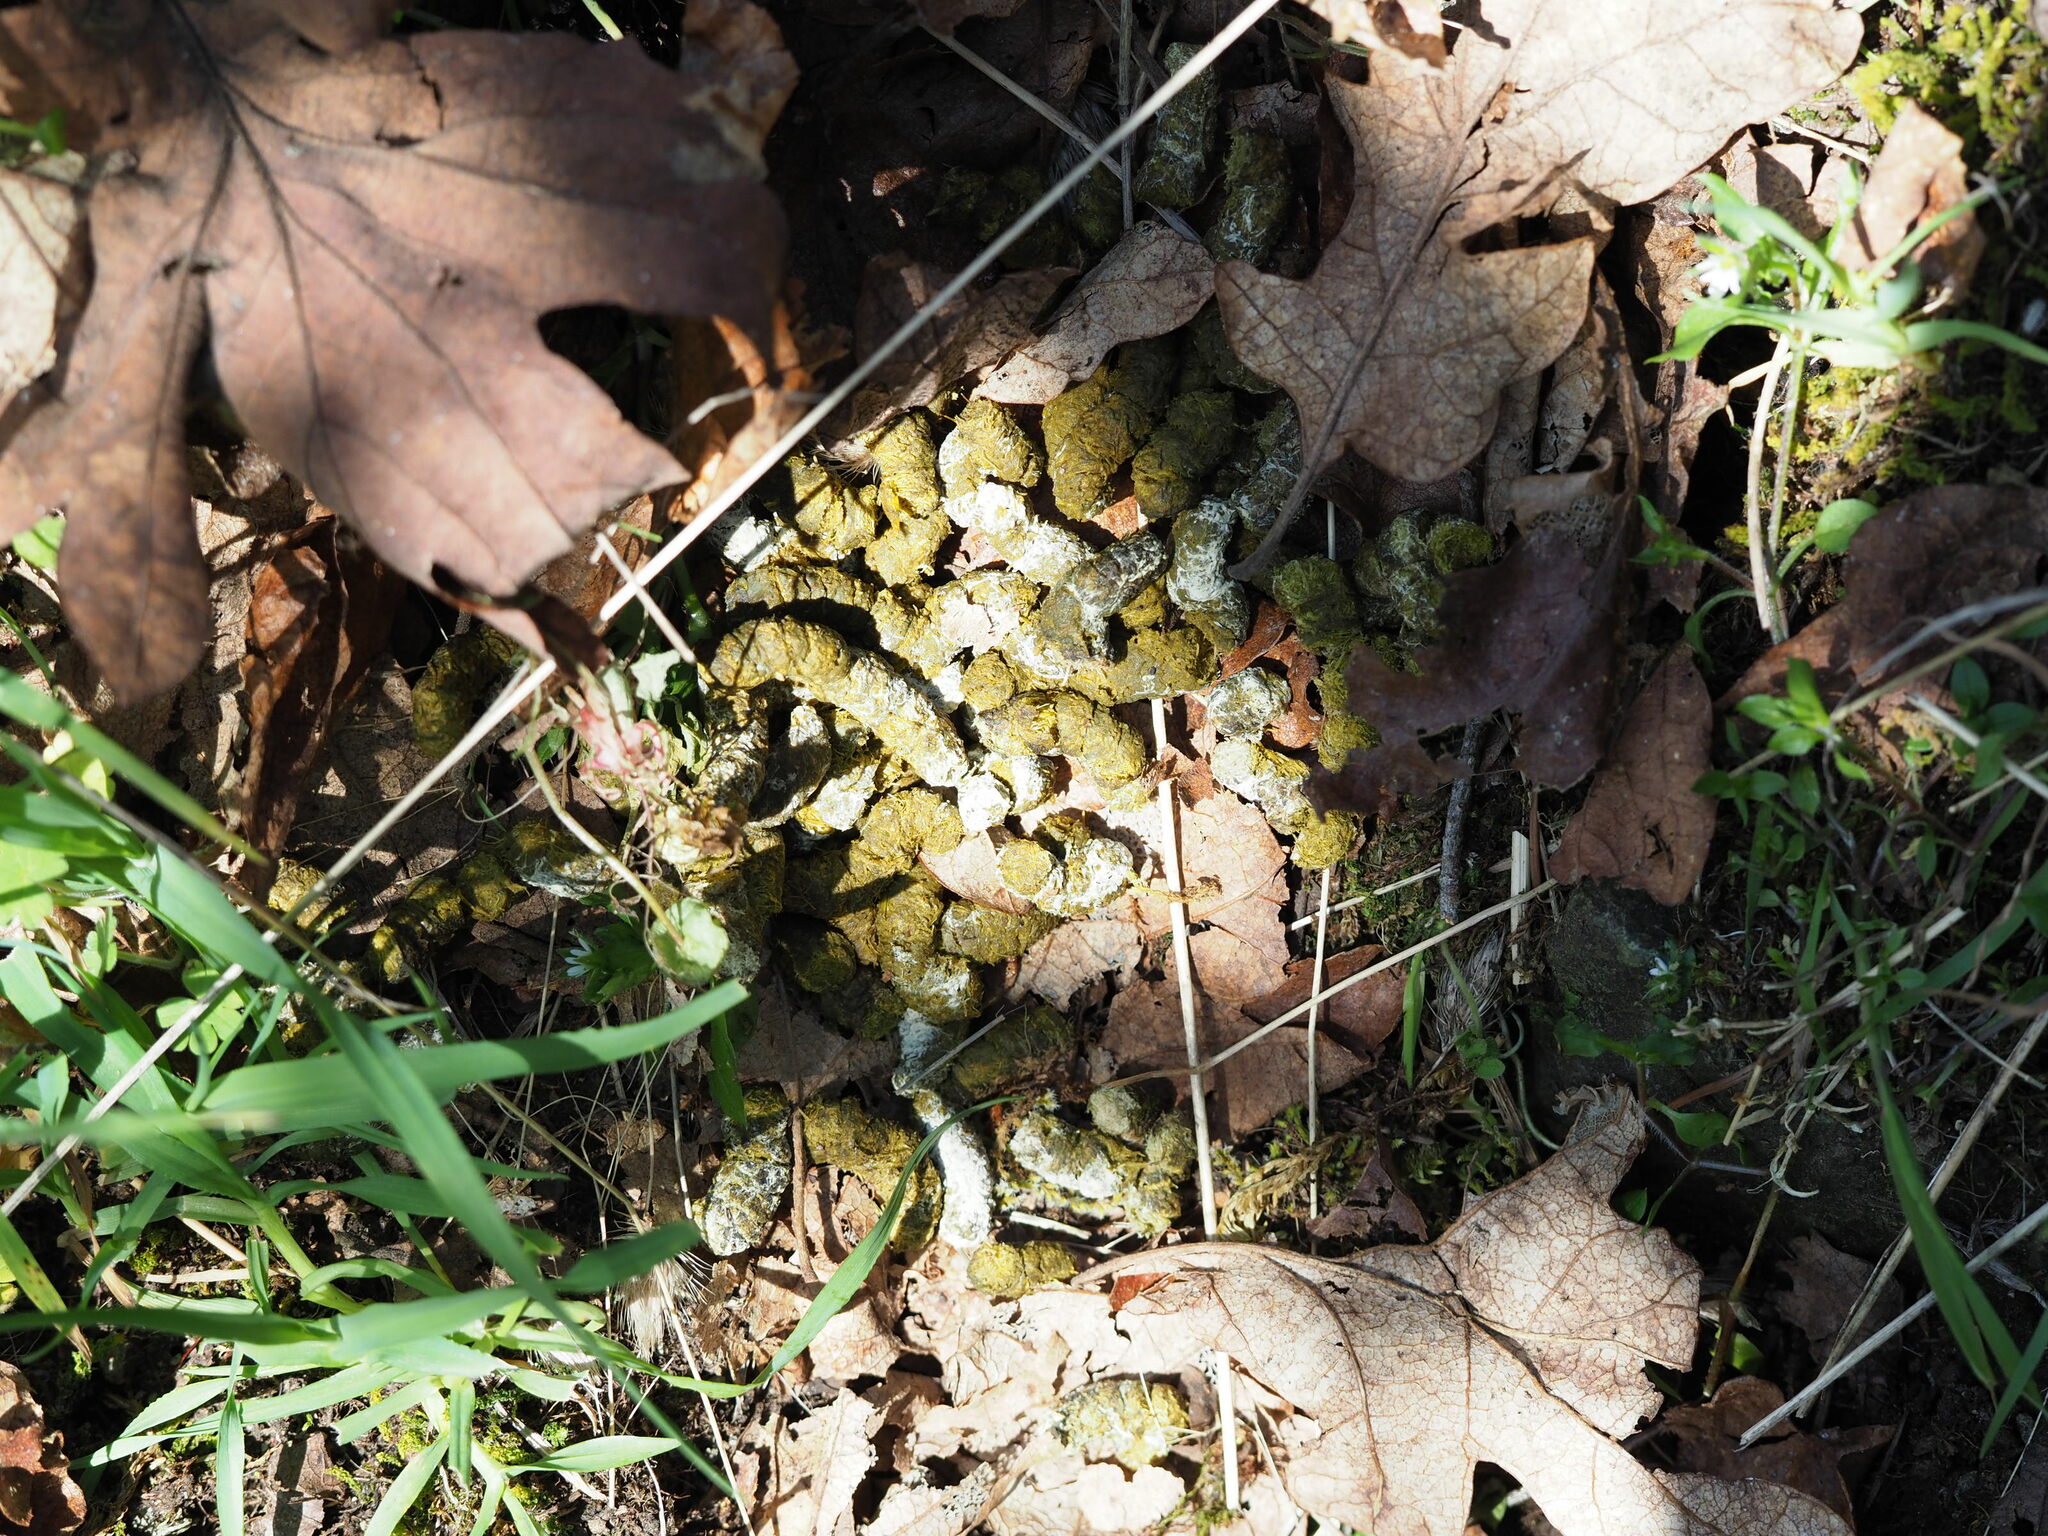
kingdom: Animalia
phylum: Chordata
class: Aves
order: Galliformes
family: Phasianidae
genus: Dendragapus
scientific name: Dendragapus fuliginosus
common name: Sooty grouse
